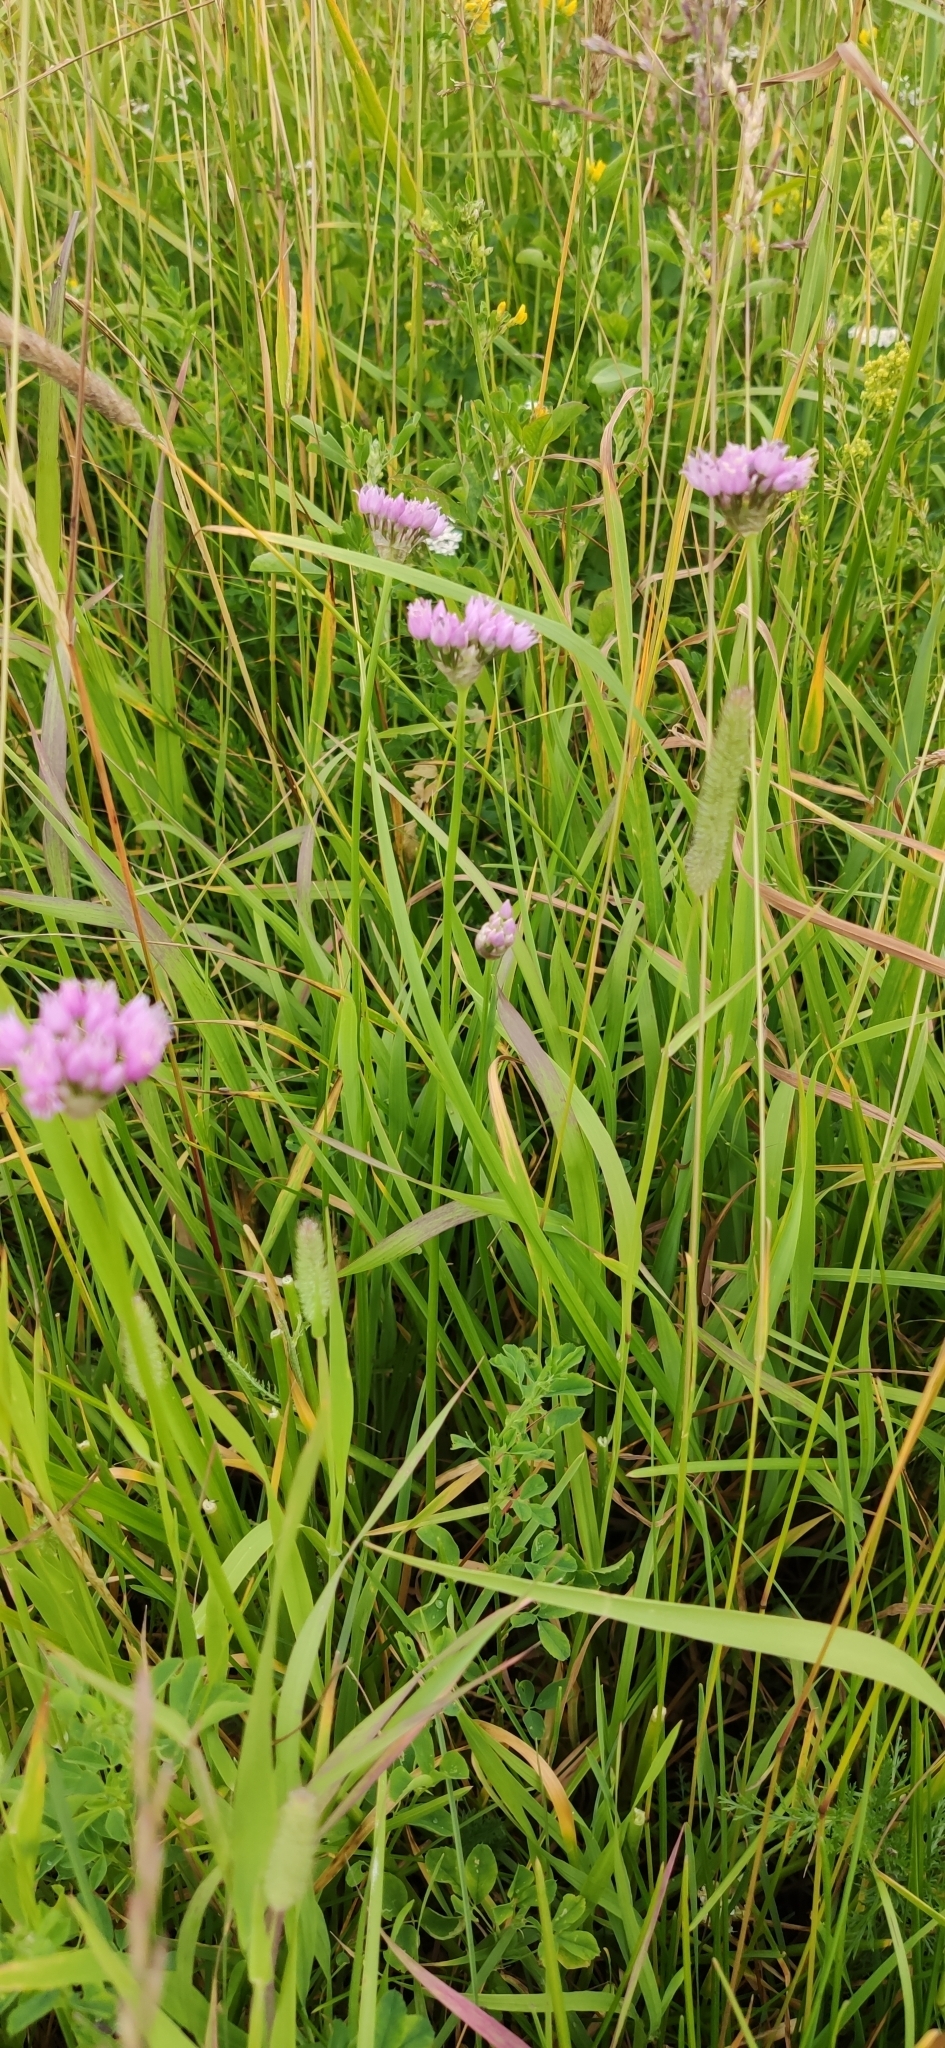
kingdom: Plantae
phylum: Tracheophyta
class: Liliopsida
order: Asparagales
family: Amaryllidaceae
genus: Allium
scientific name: Allium angulosum
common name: Mouse garlic
